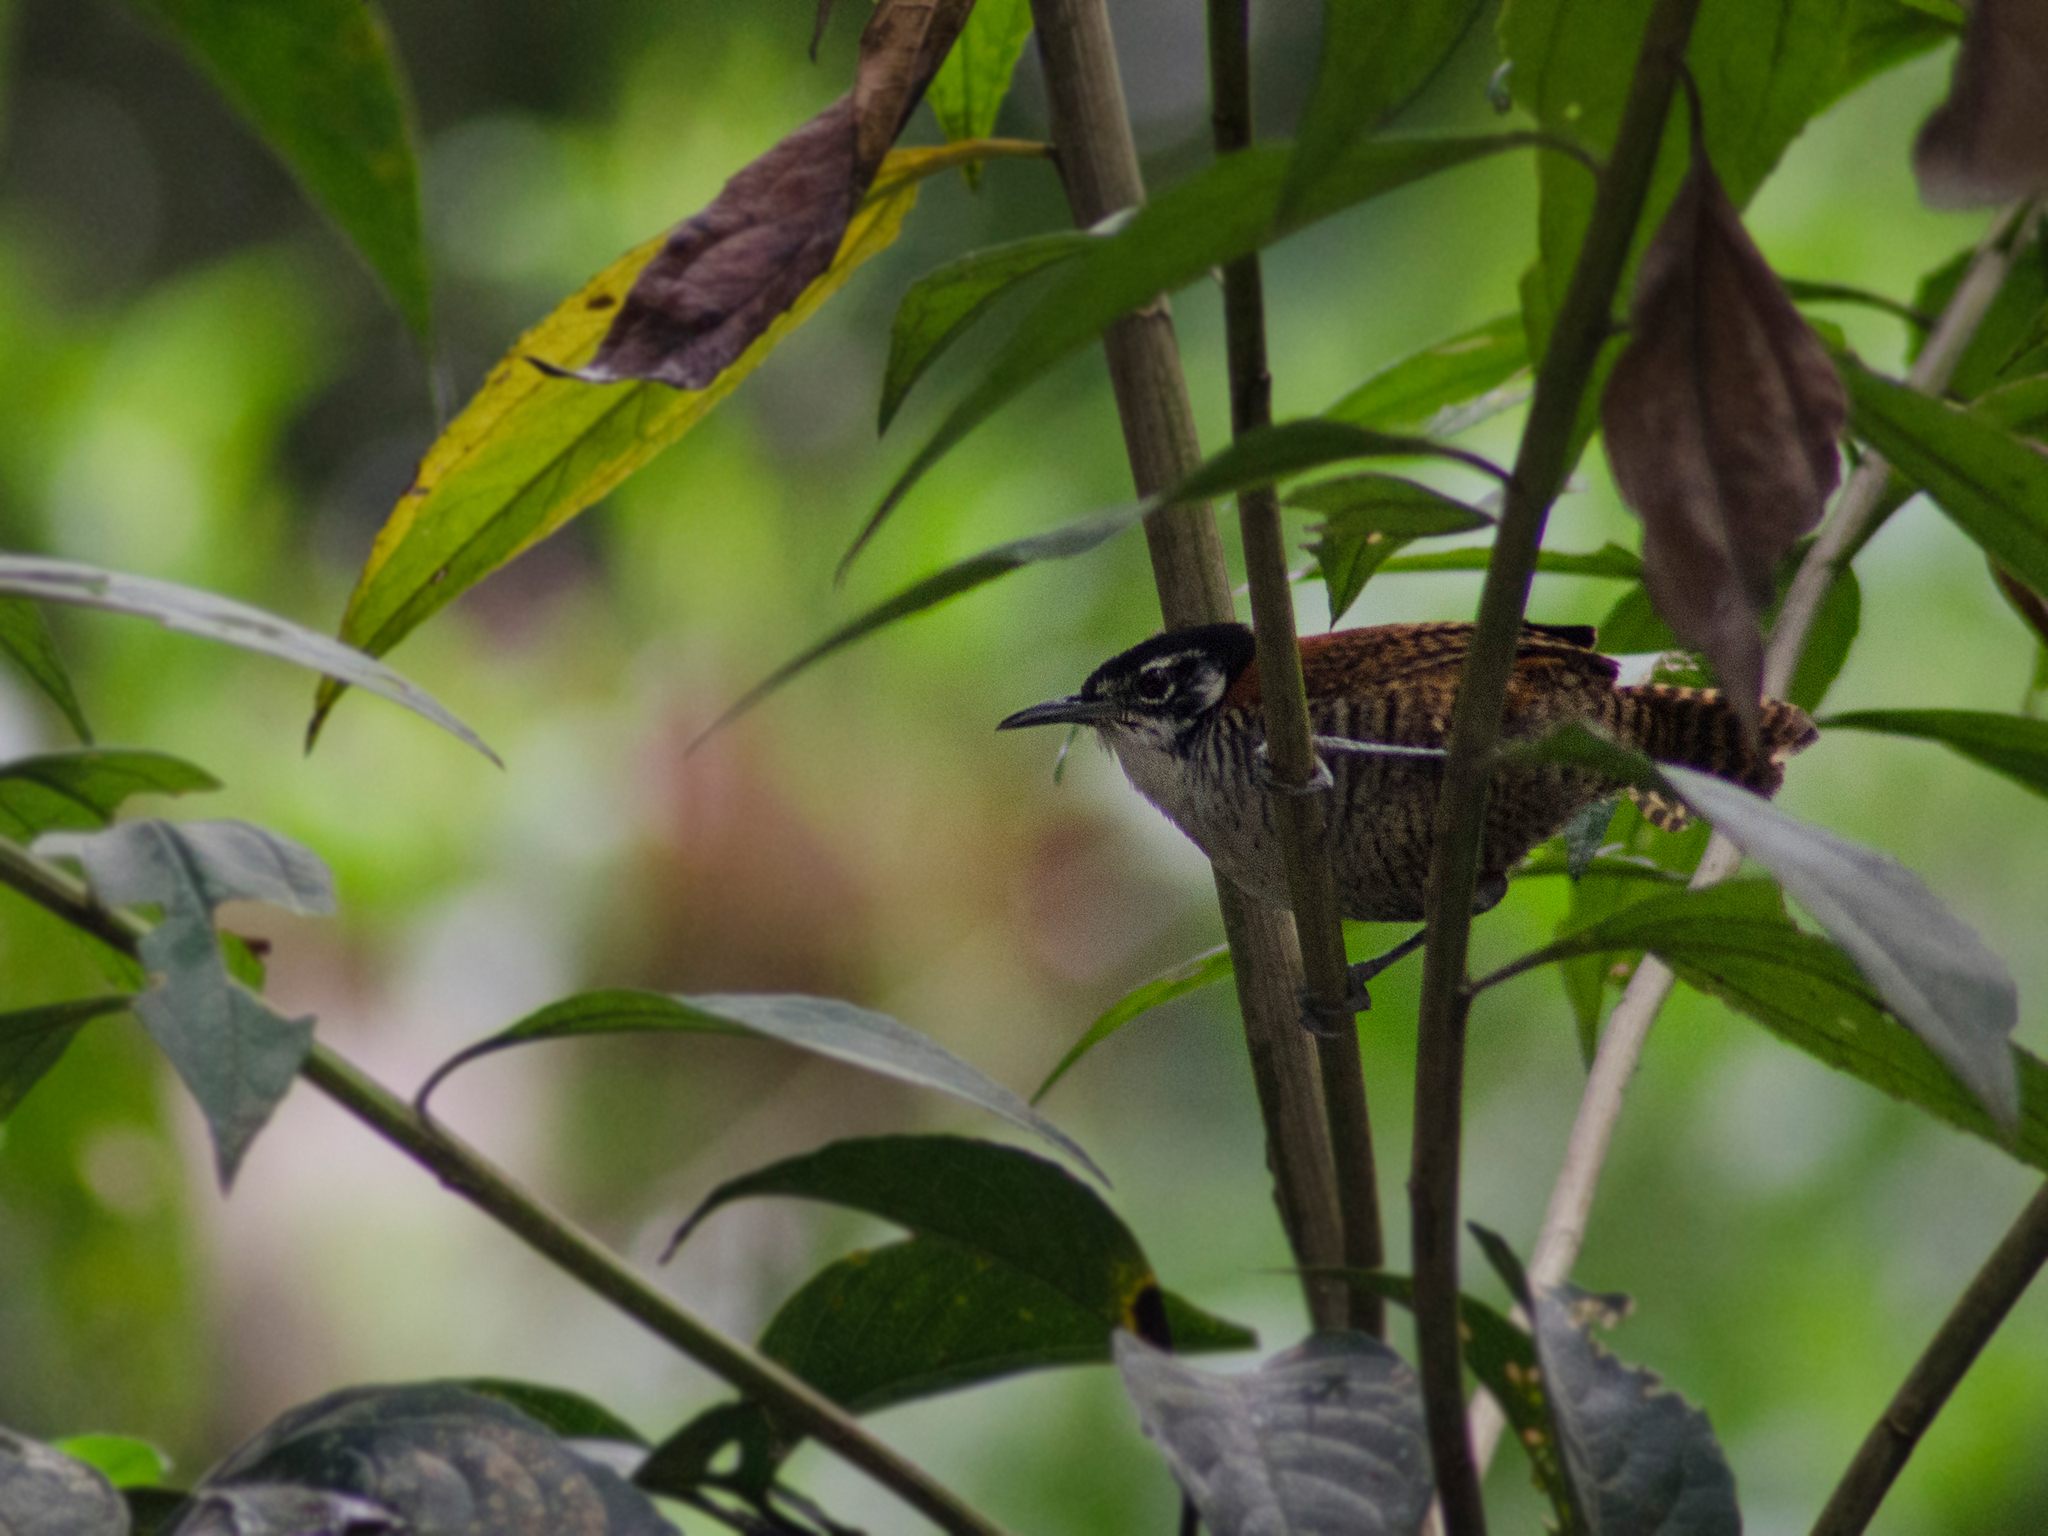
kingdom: Animalia
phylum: Chordata
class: Aves
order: Passeriformes
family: Troglodytidae
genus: Cantorchilus
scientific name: Cantorchilus nigricapillus
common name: Bay wren
